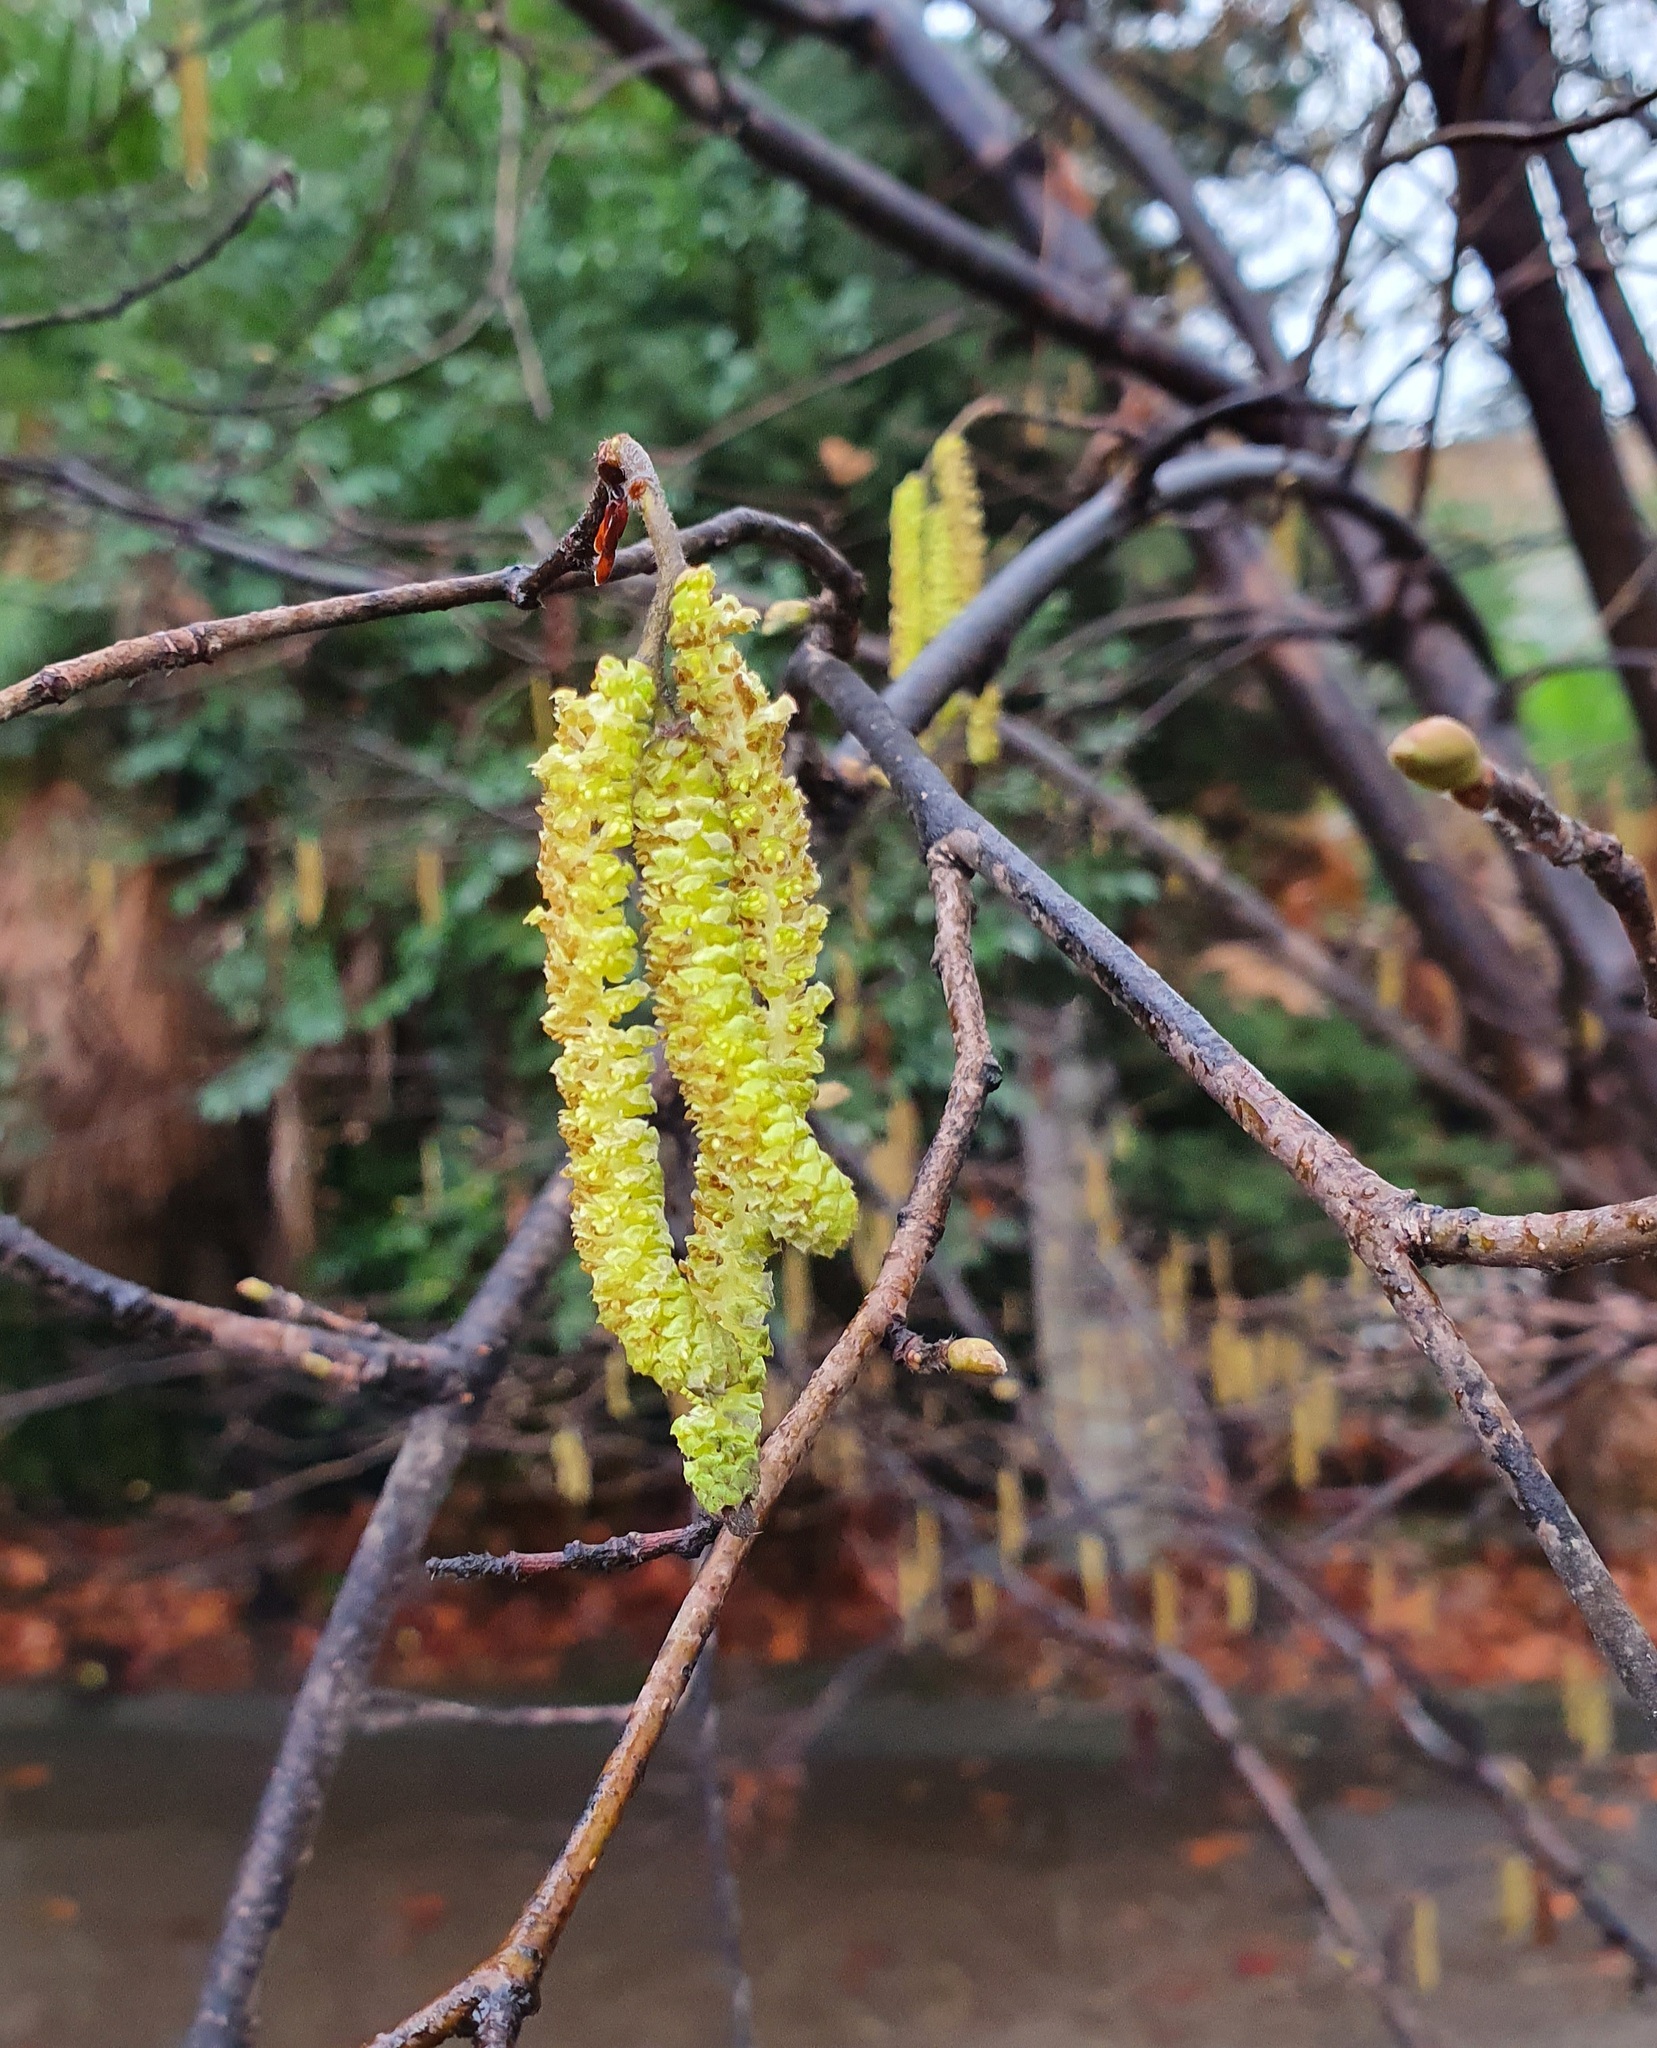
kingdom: Plantae
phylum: Tracheophyta
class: Magnoliopsida
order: Fagales
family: Betulaceae
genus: Corylus
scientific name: Corylus avellana
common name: European hazel
